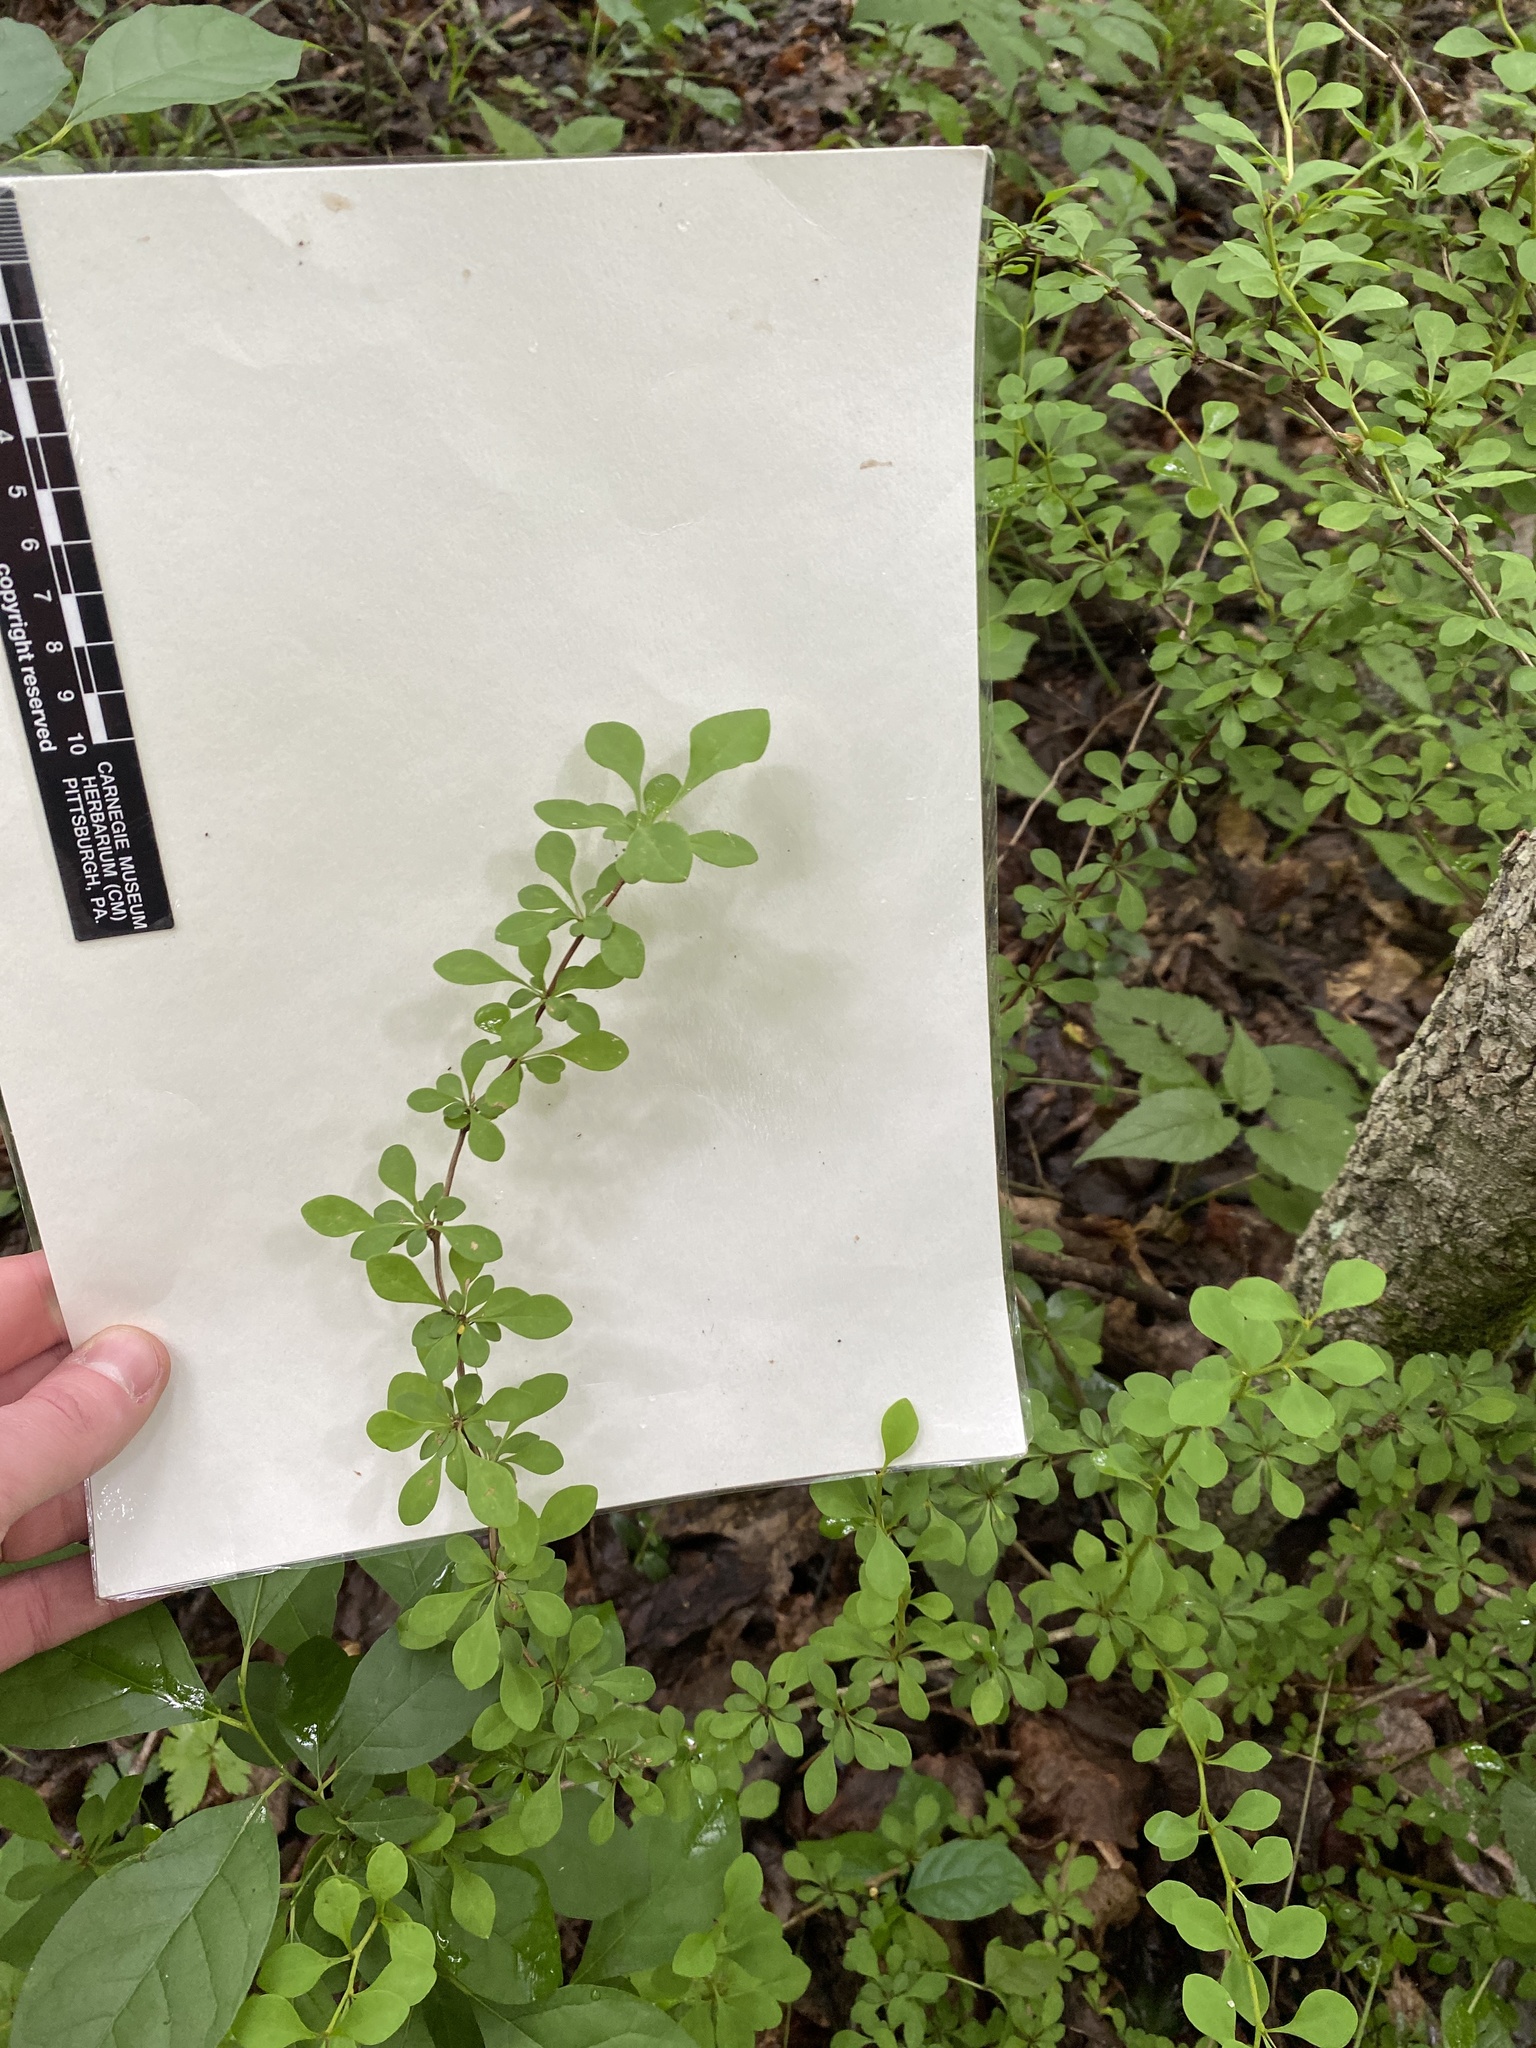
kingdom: Plantae
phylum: Tracheophyta
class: Magnoliopsida
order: Ranunculales
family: Berberidaceae
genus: Berberis
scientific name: Berberis thunbergii
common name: Japanese barberry
